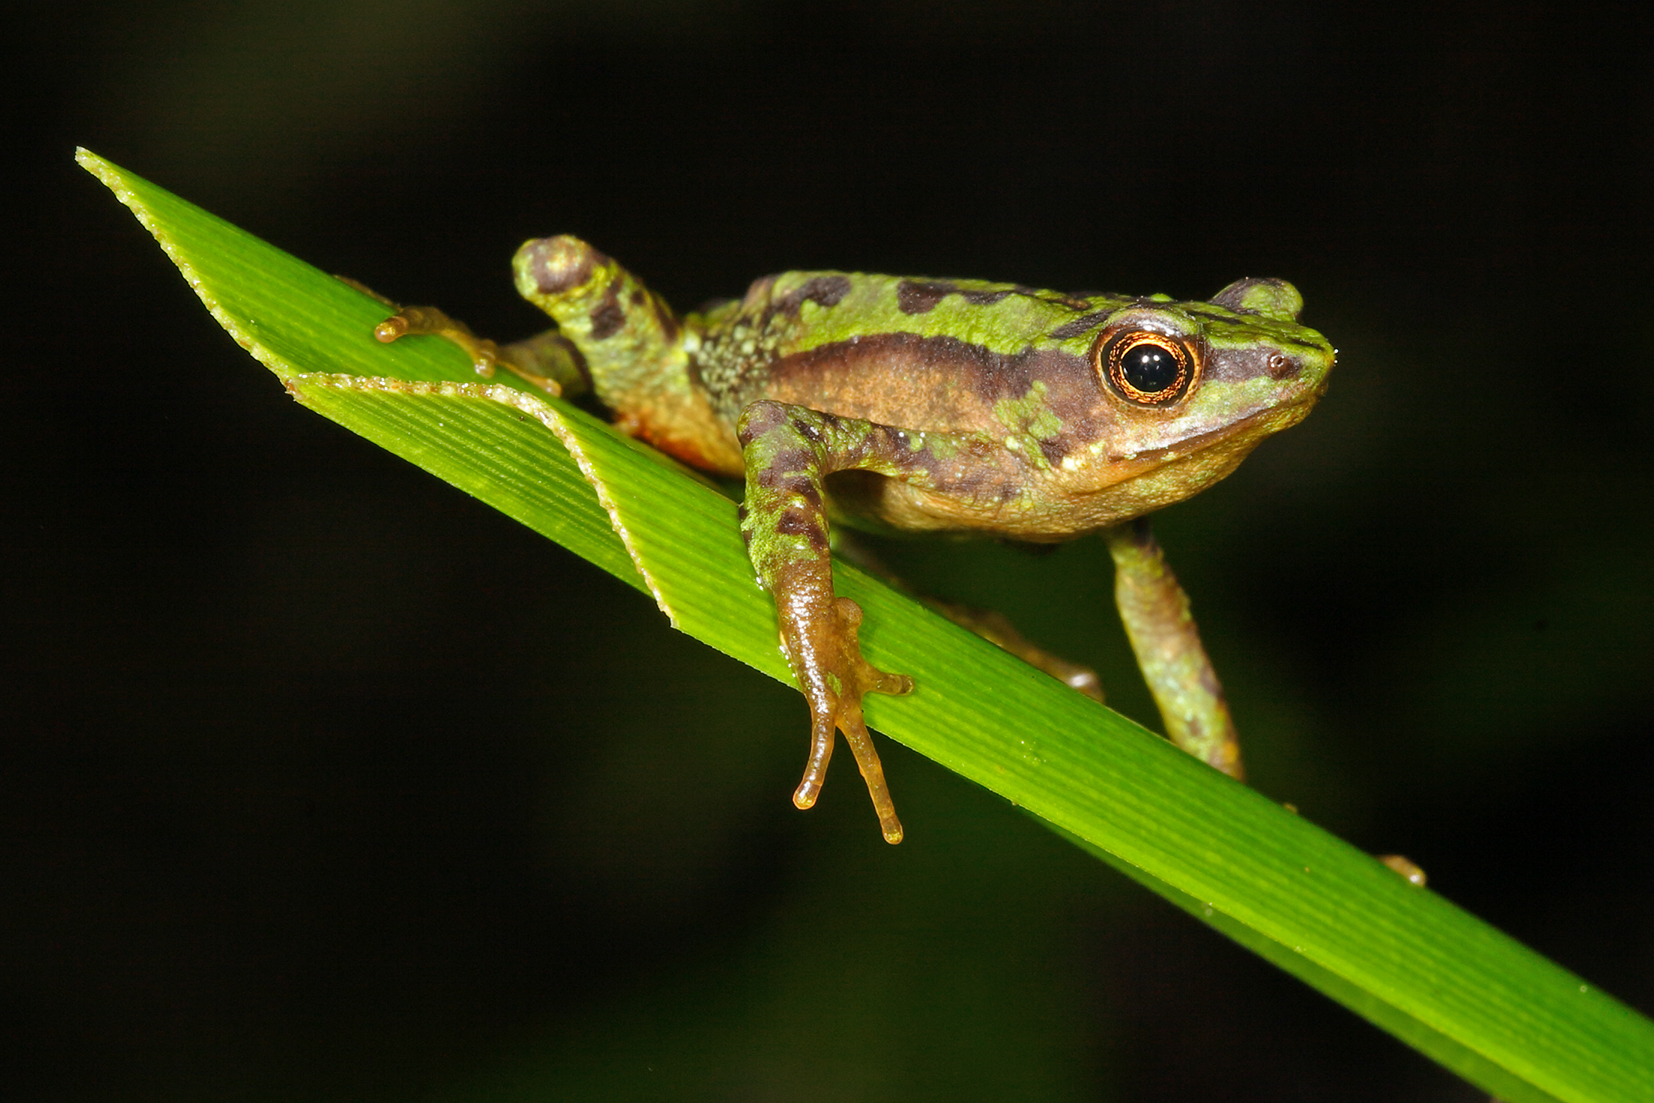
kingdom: Animalia
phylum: Chordata
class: Amphibia
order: Anura
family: Bufonidae
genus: Atelopus
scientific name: Atelopus palmatus
